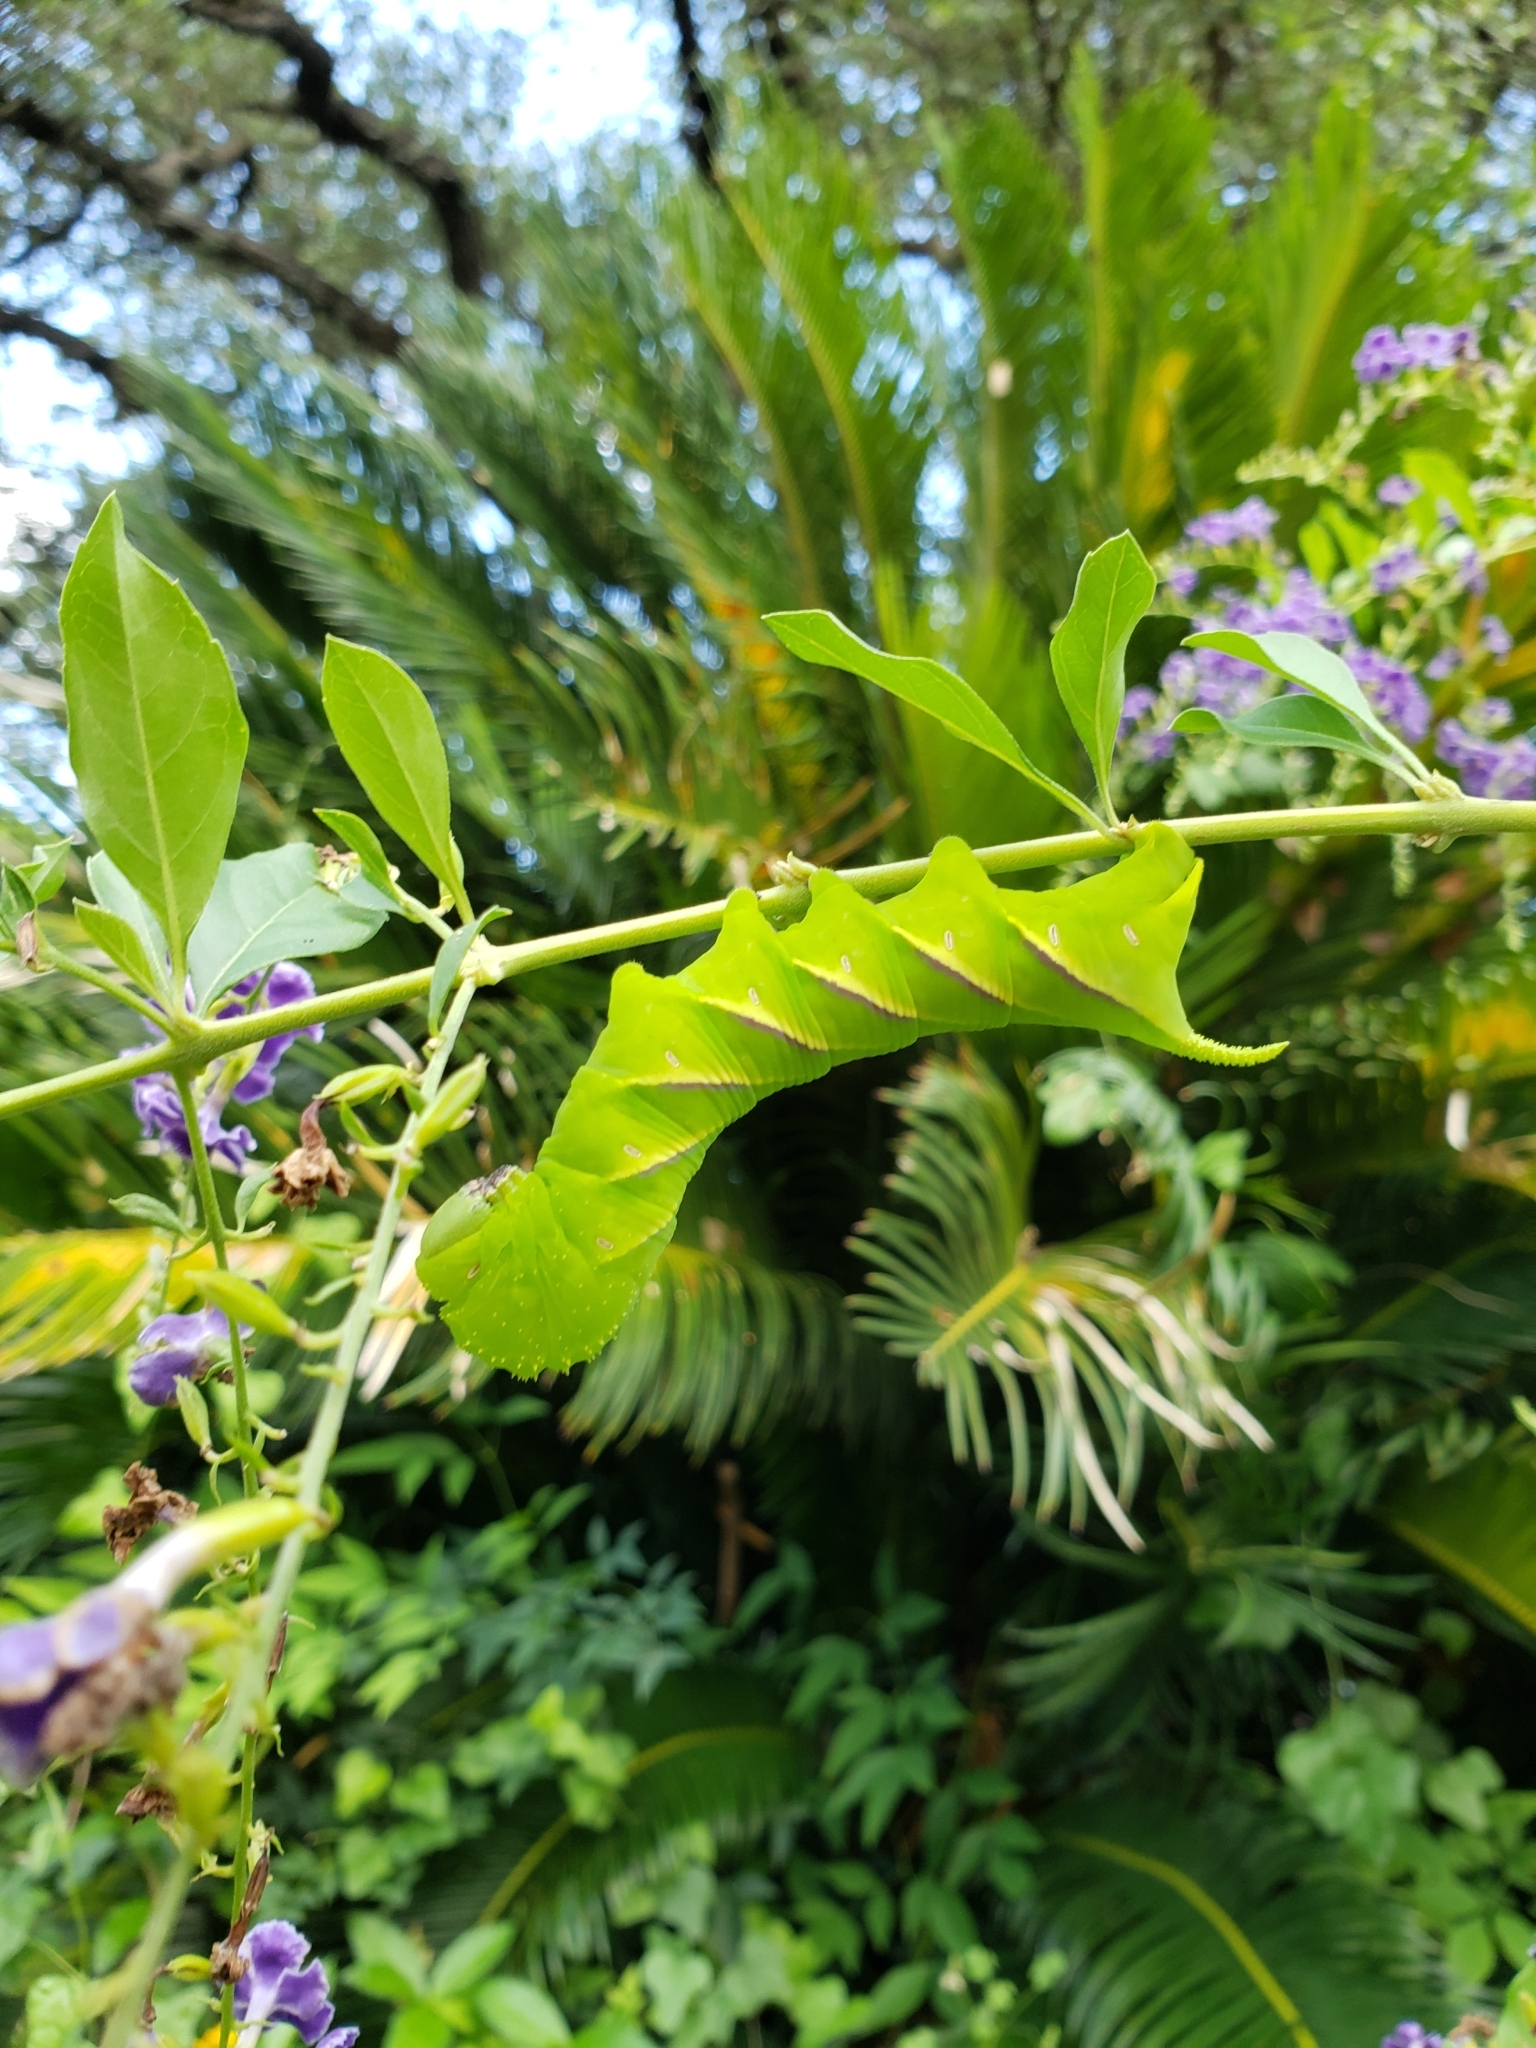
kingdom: Animalia
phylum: Arthropoda
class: Insecta
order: Lepidoptera
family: Sphingidae
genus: Manduca
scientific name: Manduca rustica
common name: Rustic sphinx
